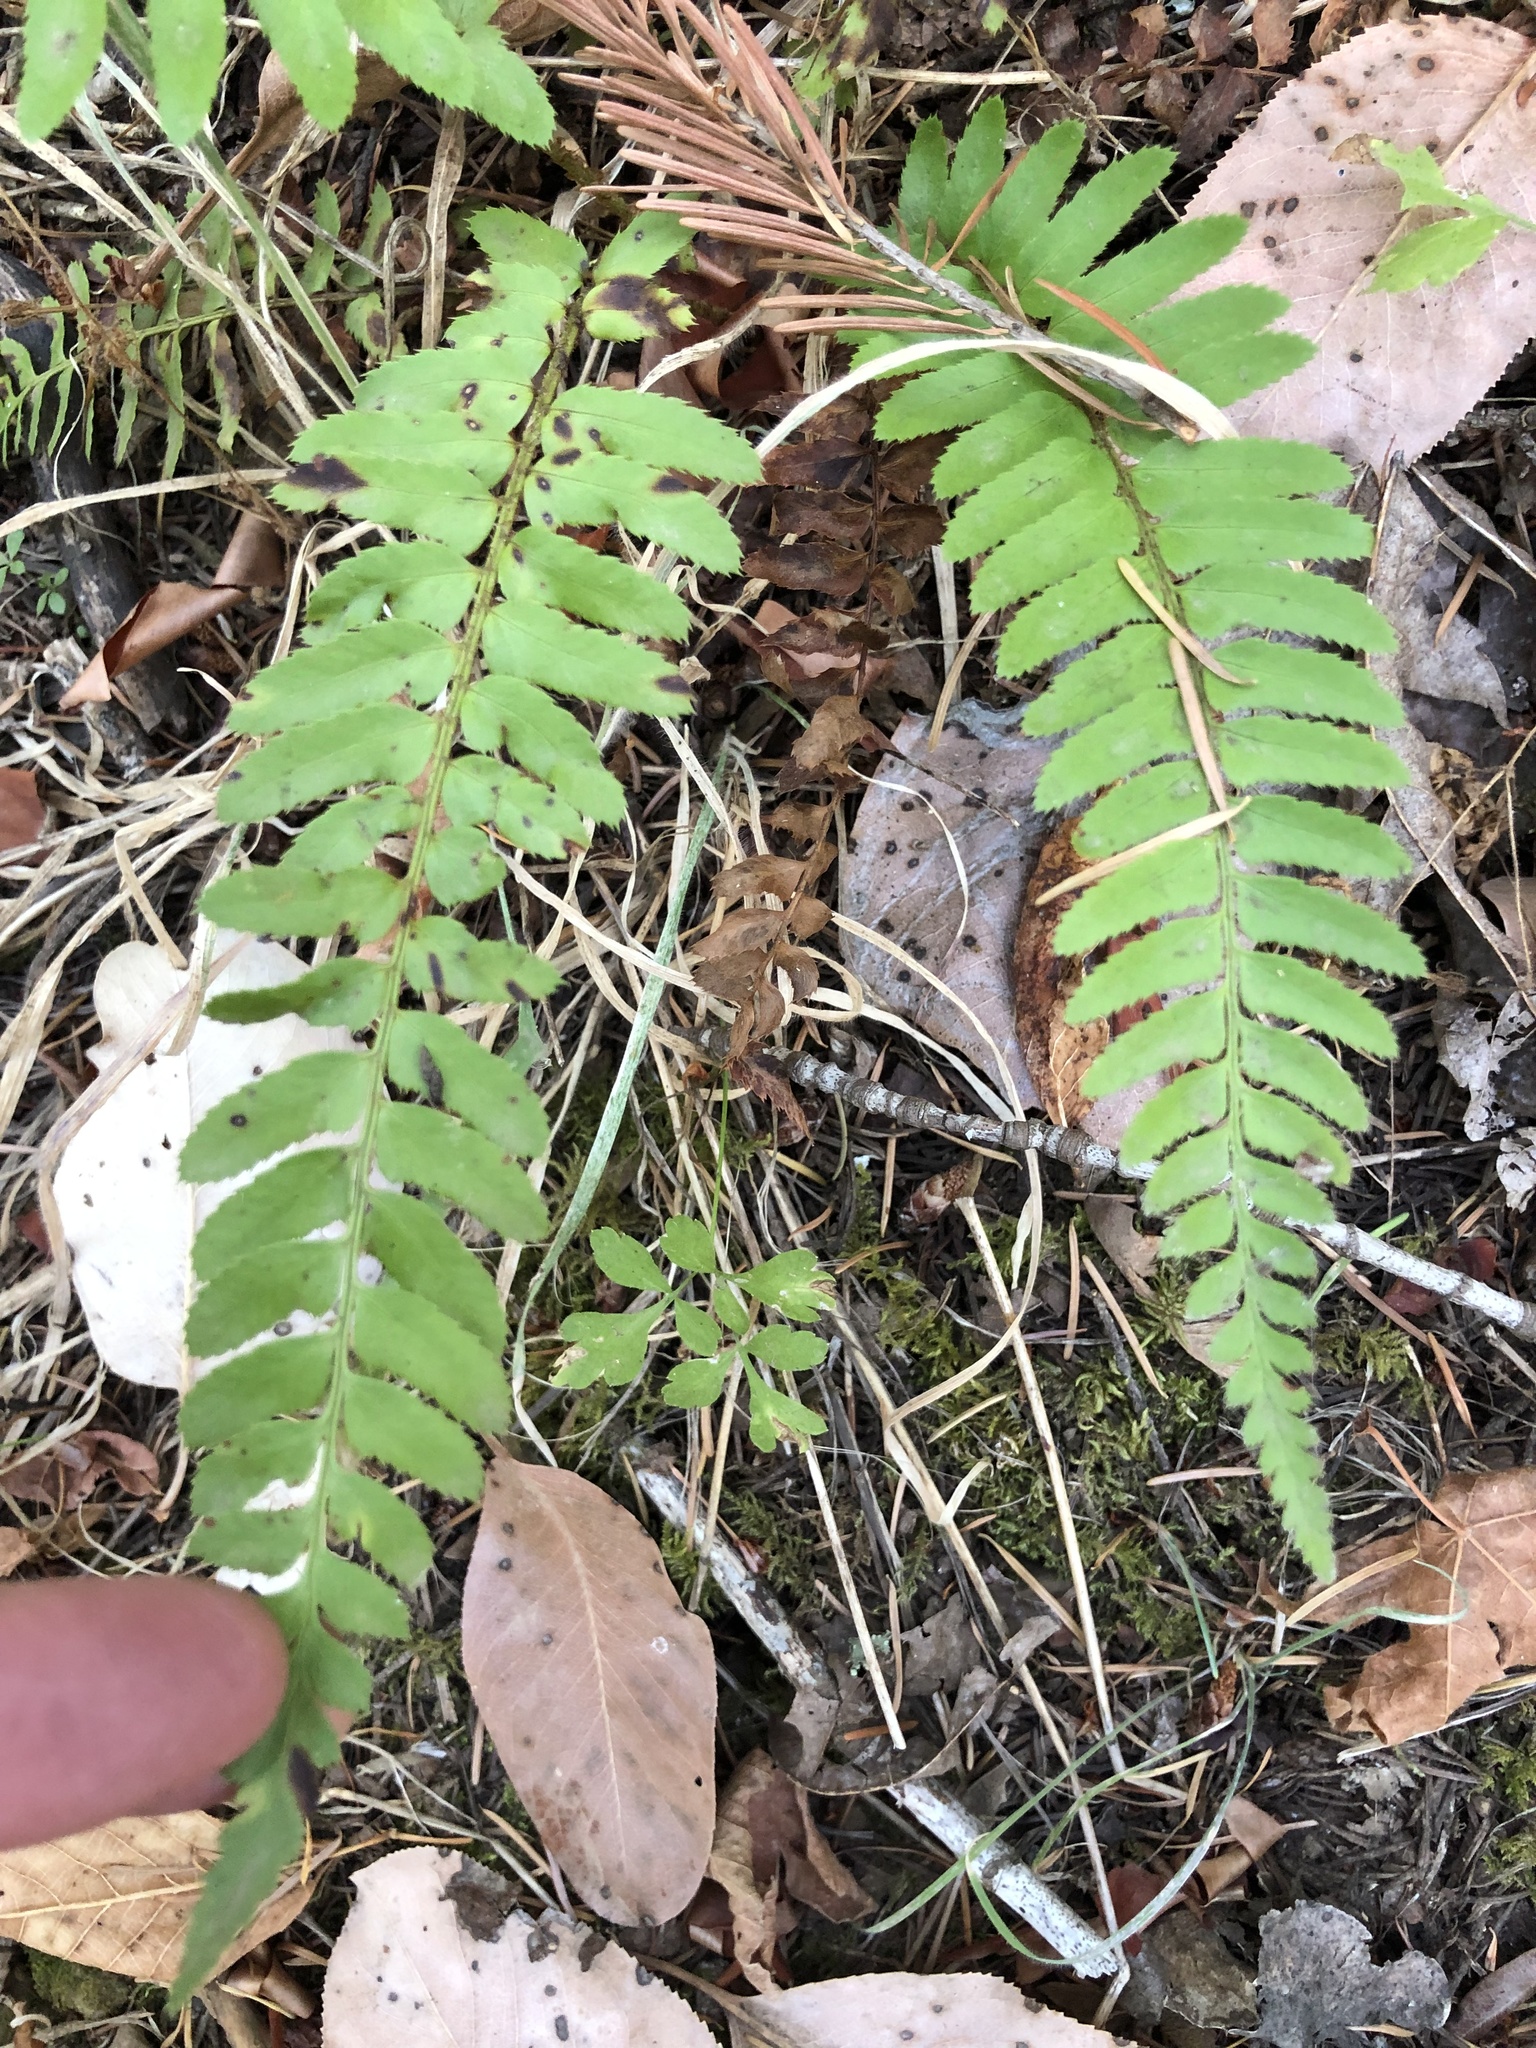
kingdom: Plantae
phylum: Tracheophyta
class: Polypodiopsida
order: Polypodiales
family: Dryopteridaceae
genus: Polystichum
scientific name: Polystichum munitum
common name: Western sword-fern
